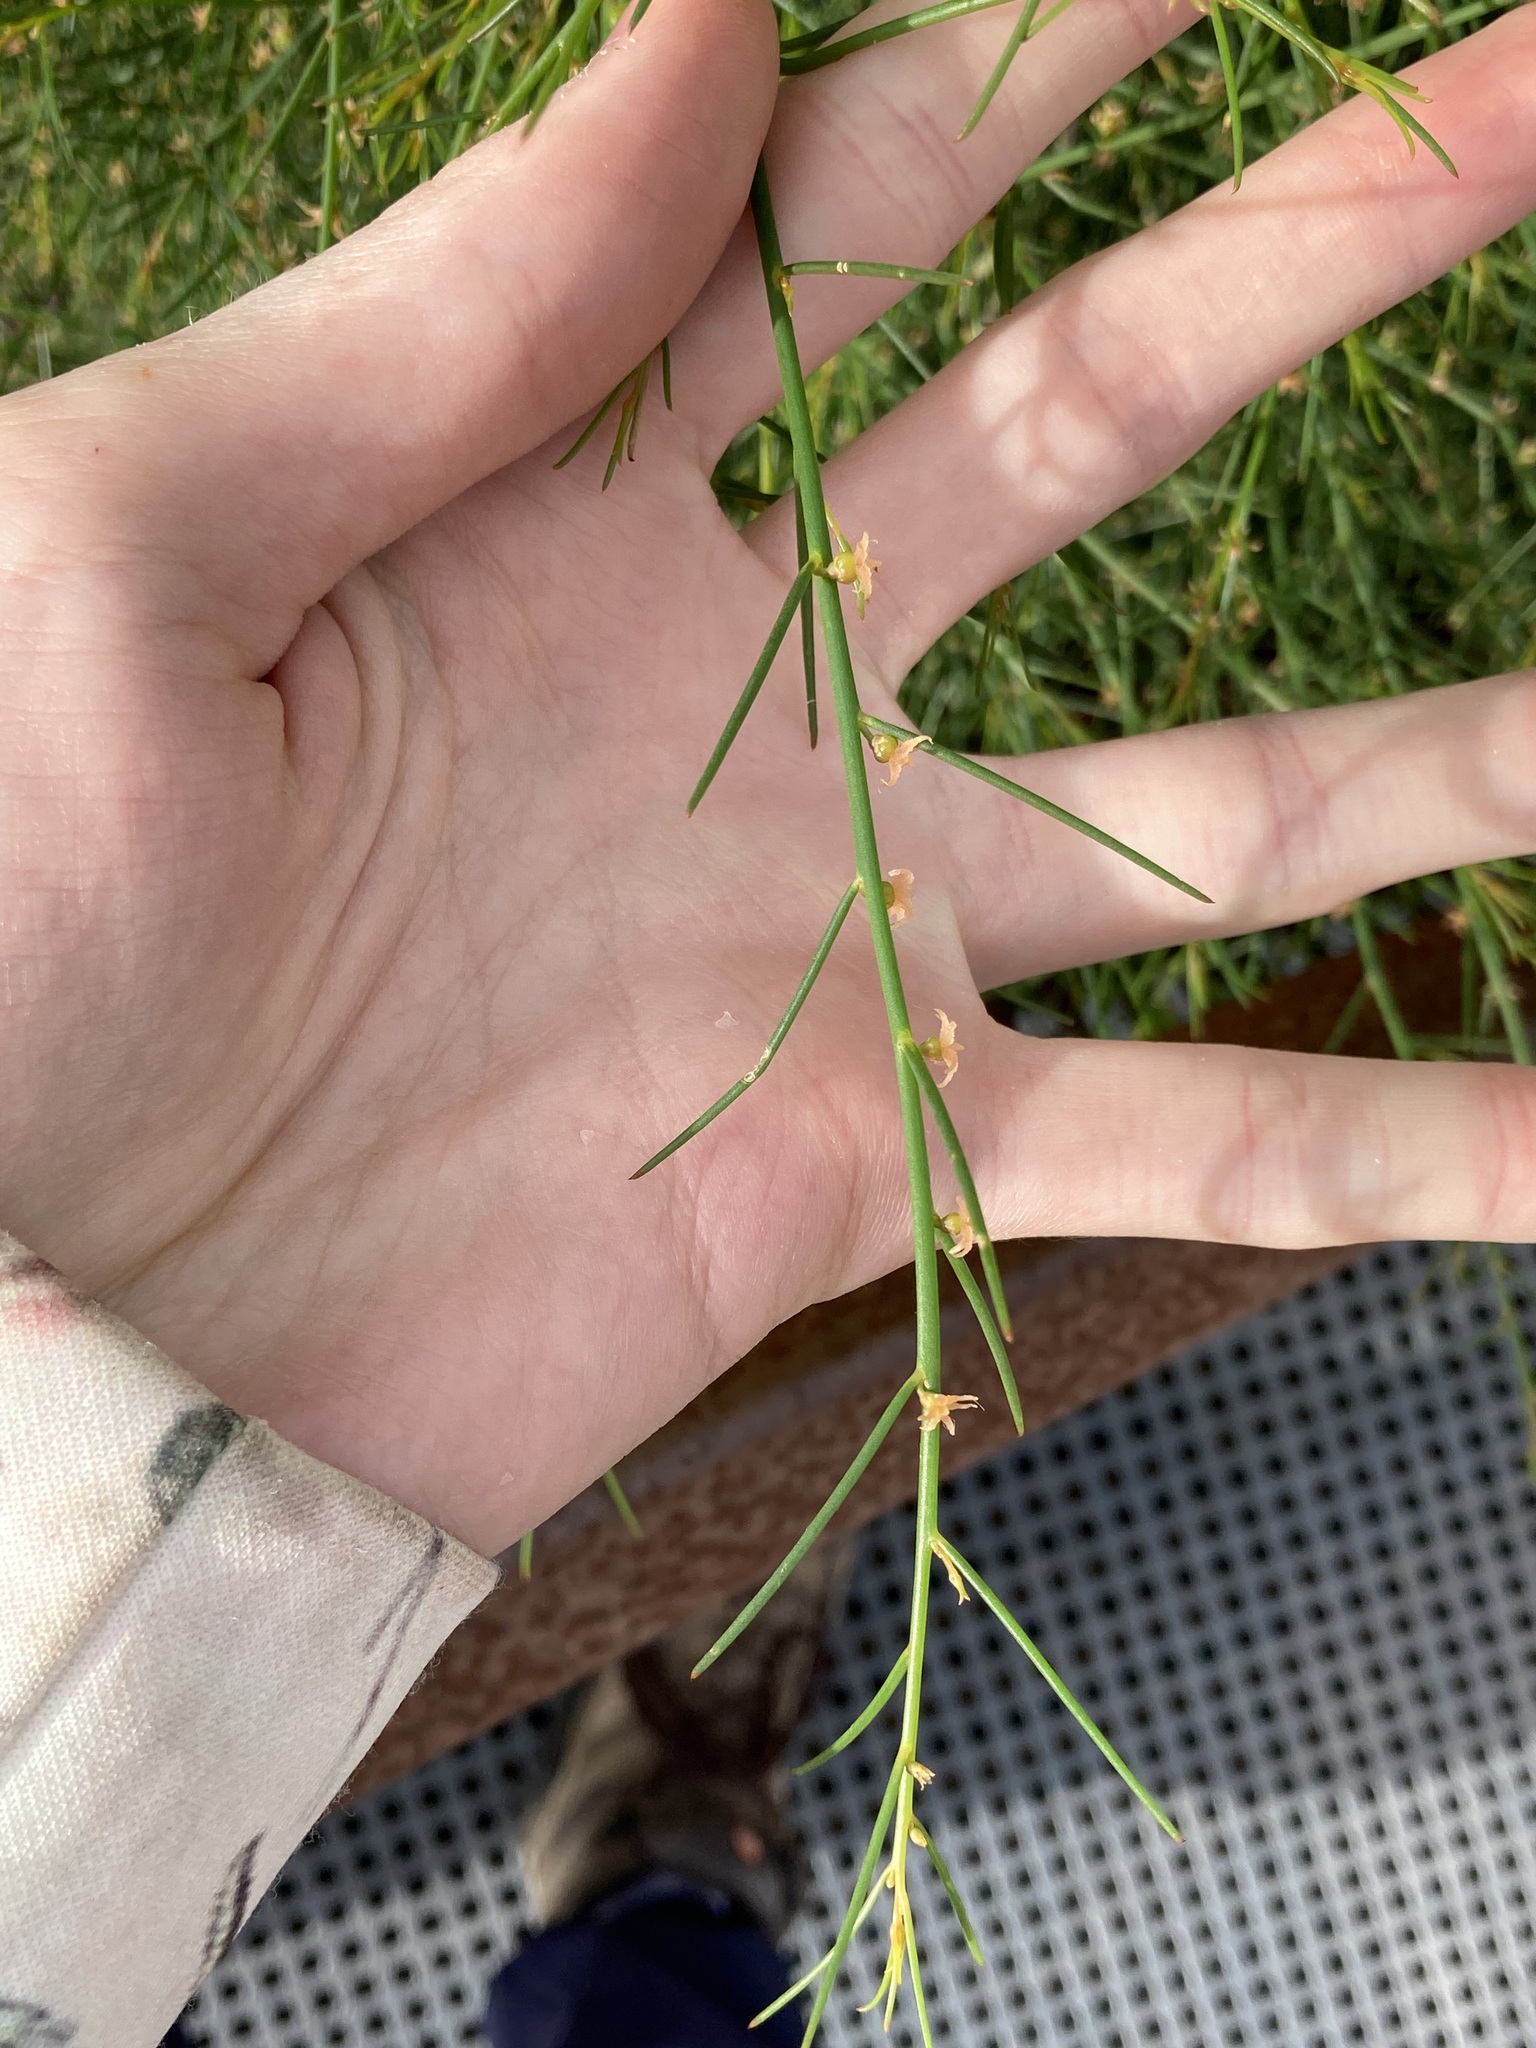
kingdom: Plantae
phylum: Tracheophyta
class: Magnoliopsida
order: Brassicales
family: Gyrostemonaceae
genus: Gyrostemon
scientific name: Gyrostemon subnudus
